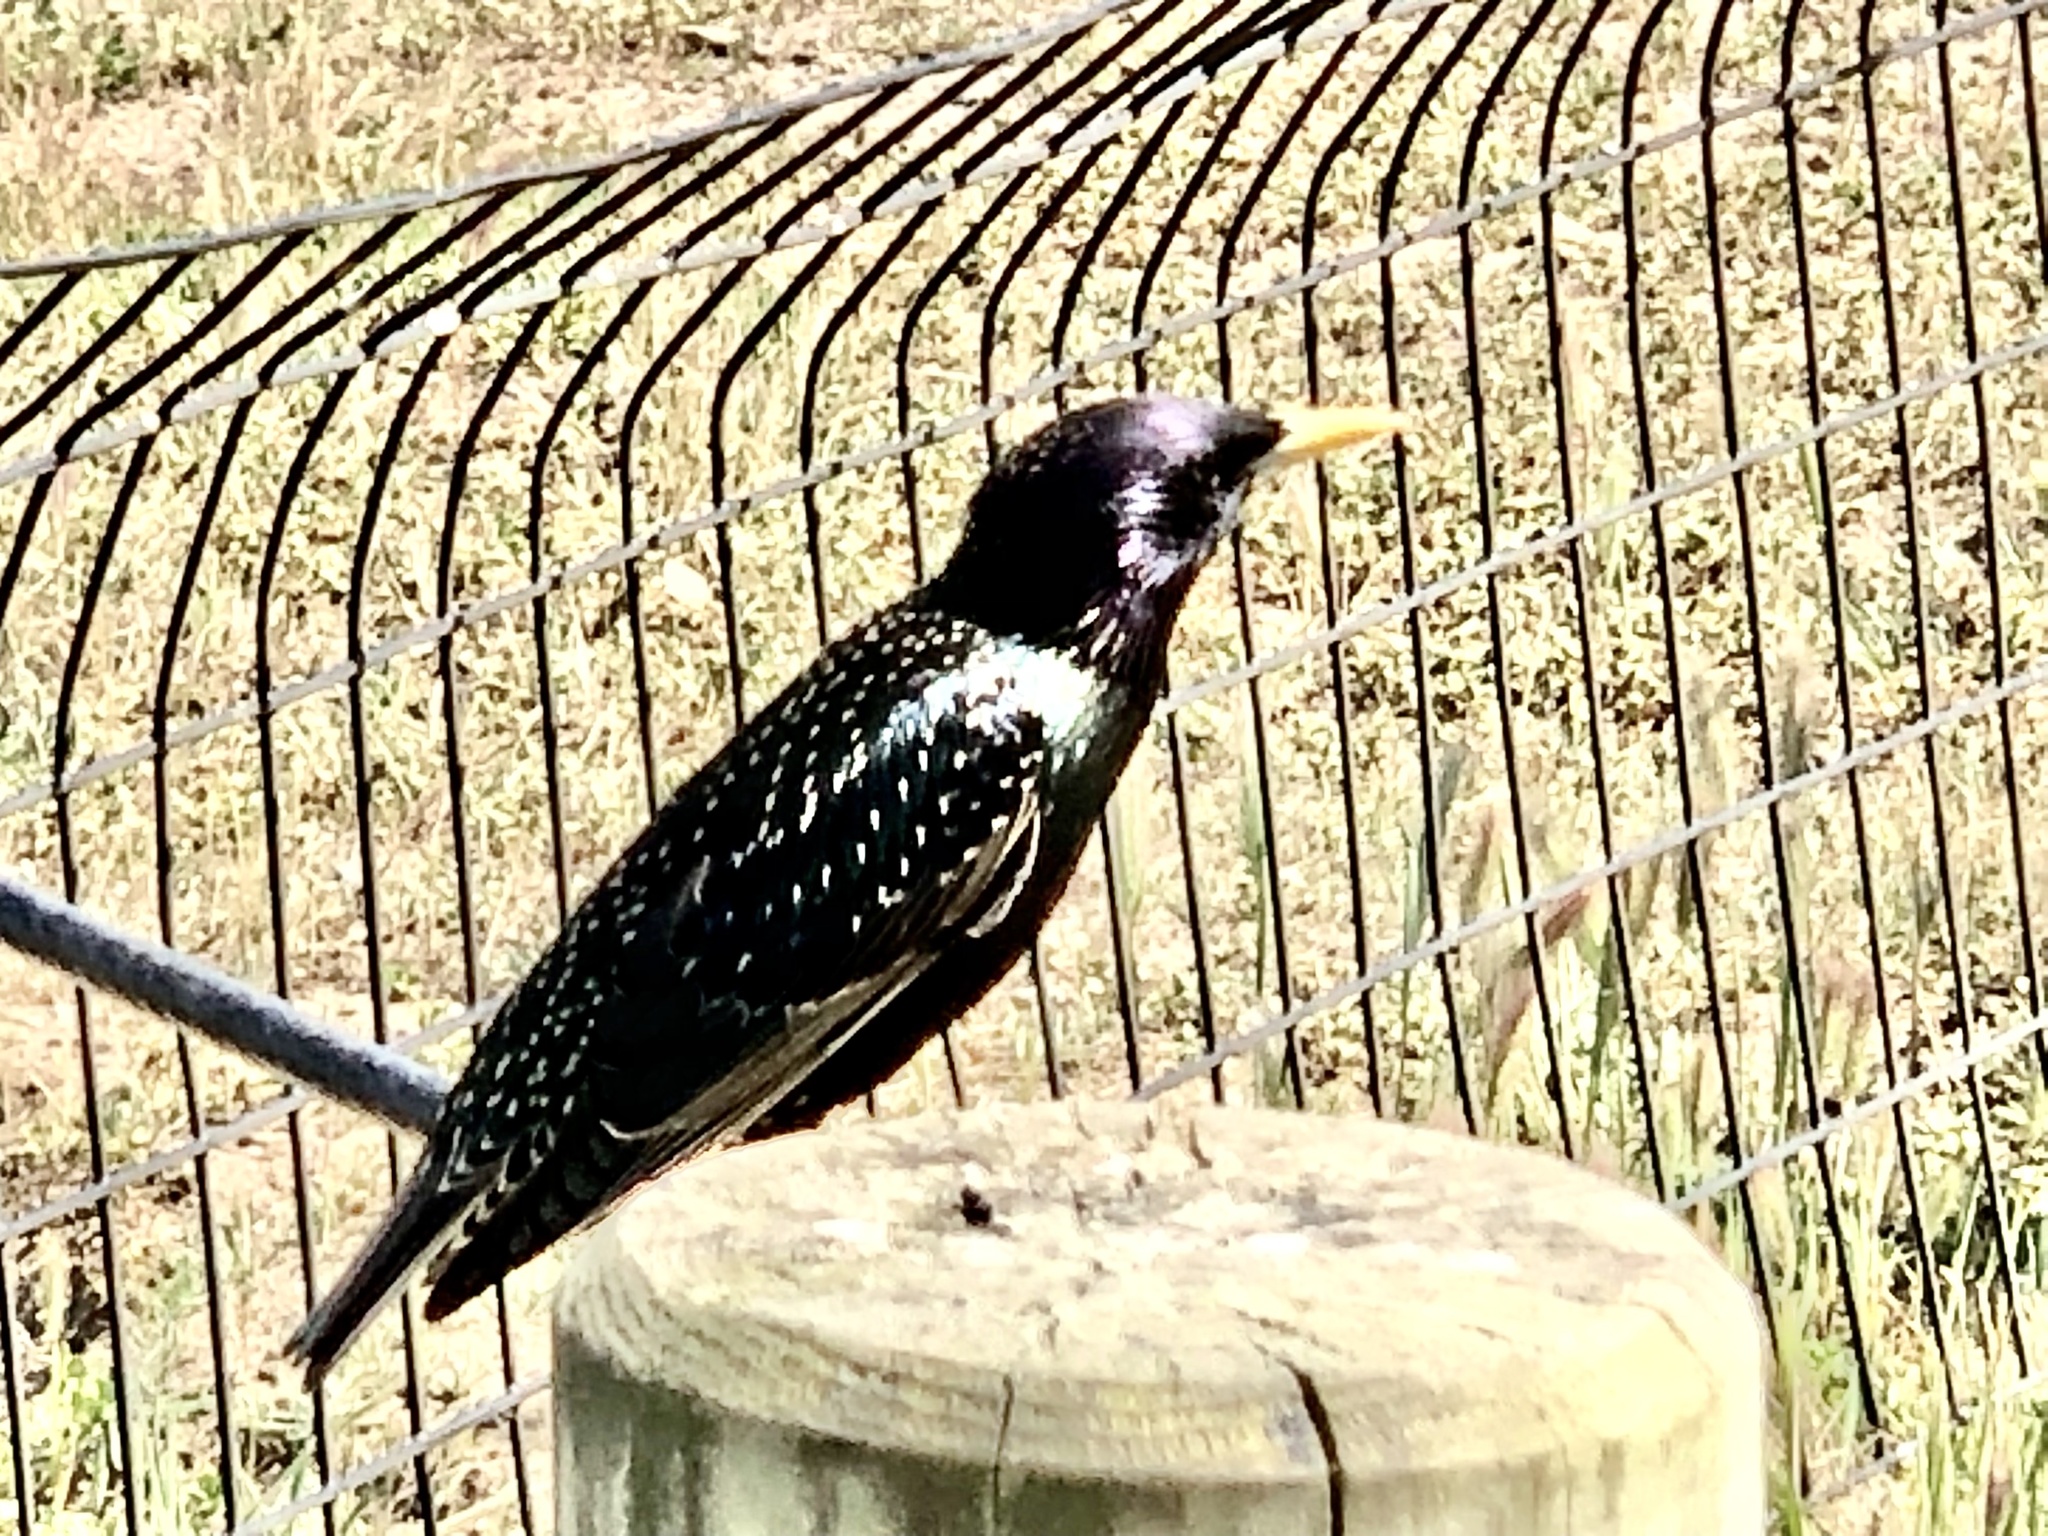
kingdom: Animalia
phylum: Chordata
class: Aves
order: Passeriformes
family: Sturnidae
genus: Sturnus
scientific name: Sturnus vulgaris
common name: Common starling
